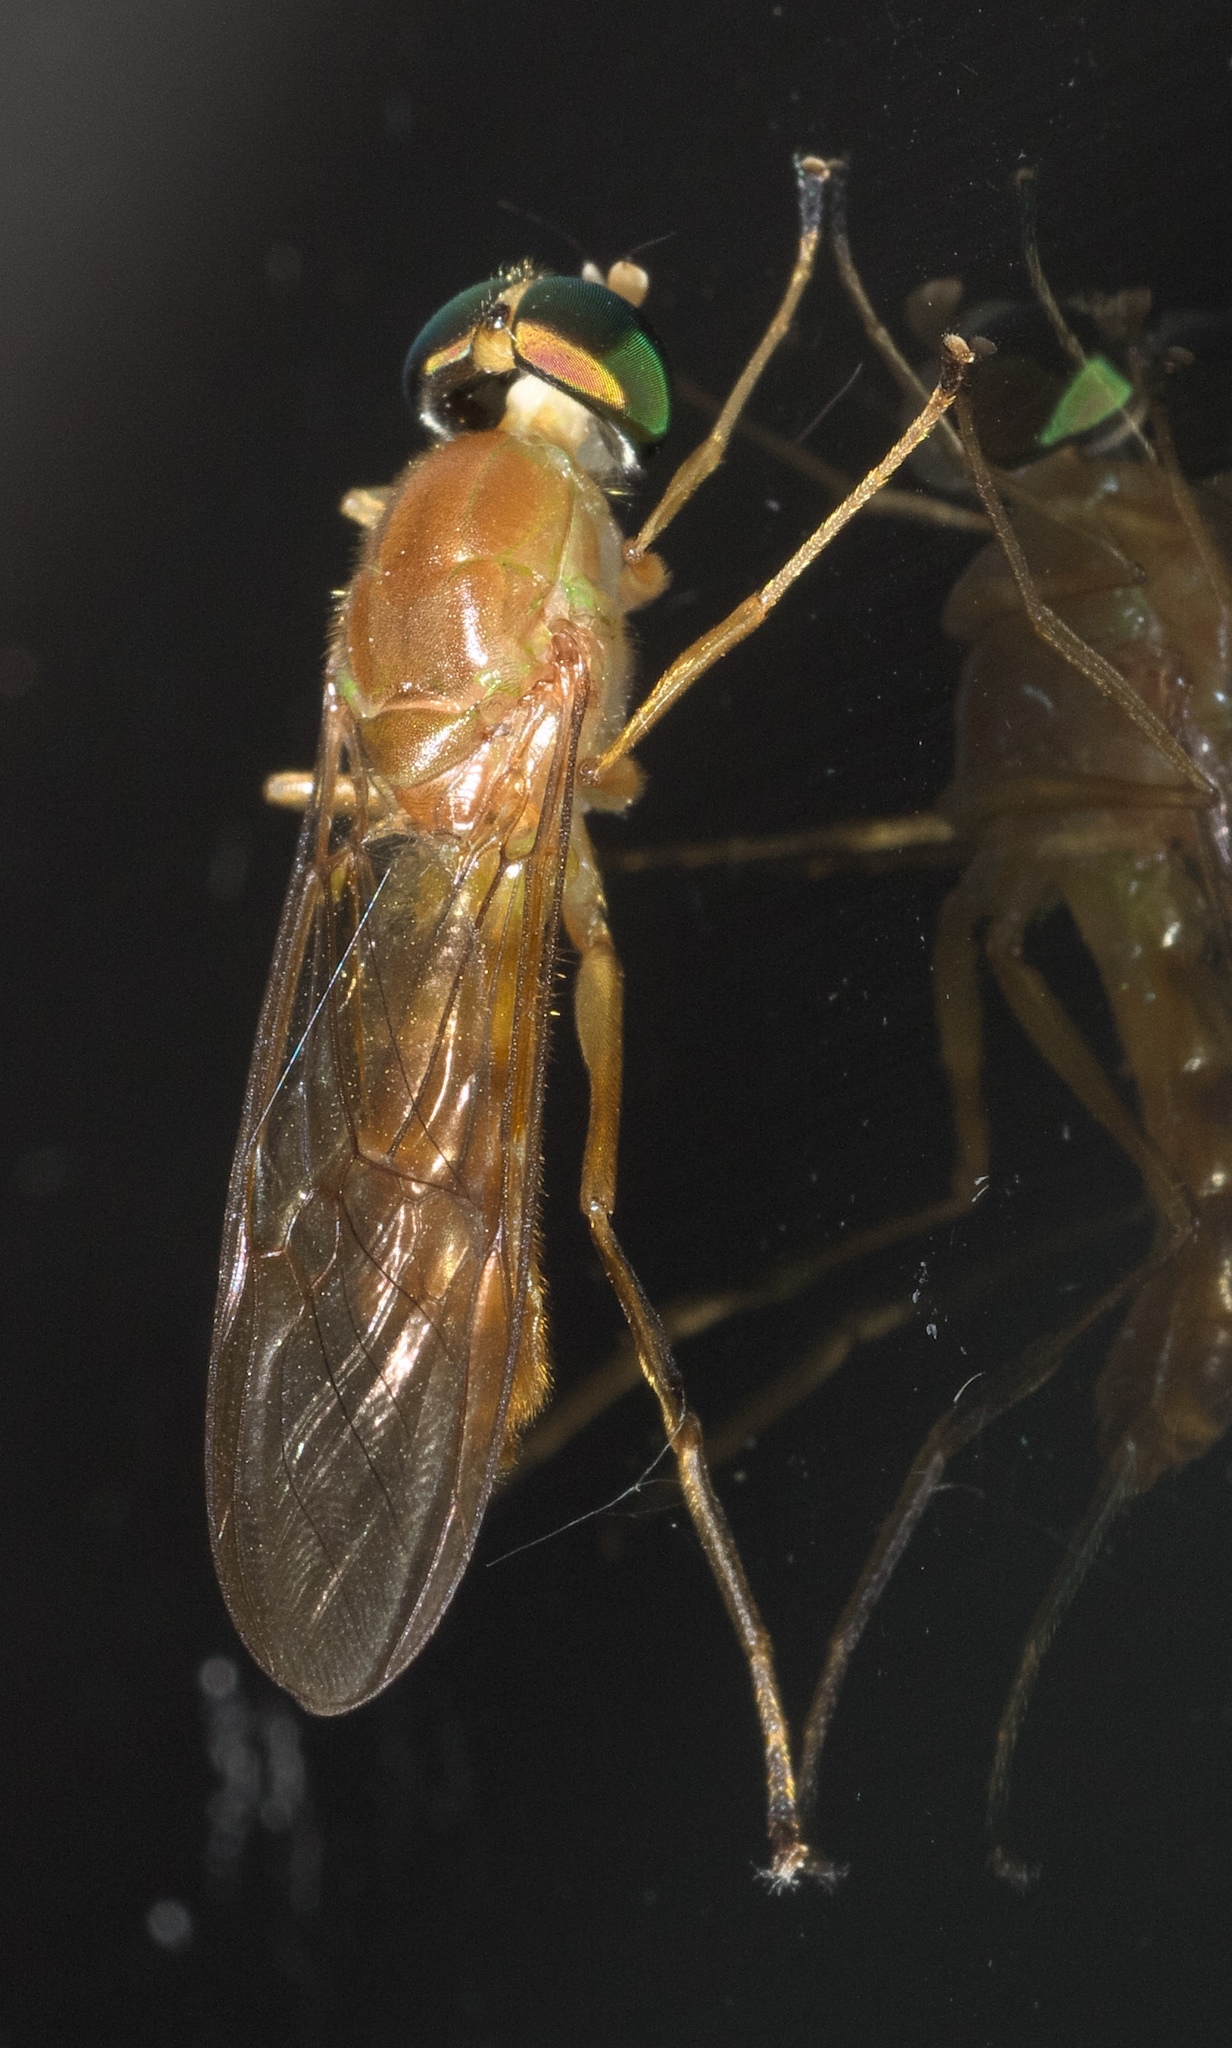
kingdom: Animalia
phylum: Arthropoda
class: Insecta
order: Diptera
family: Stratiomyidae
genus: Ptecticus
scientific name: Ptecticus trivittatus
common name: Compost fly
